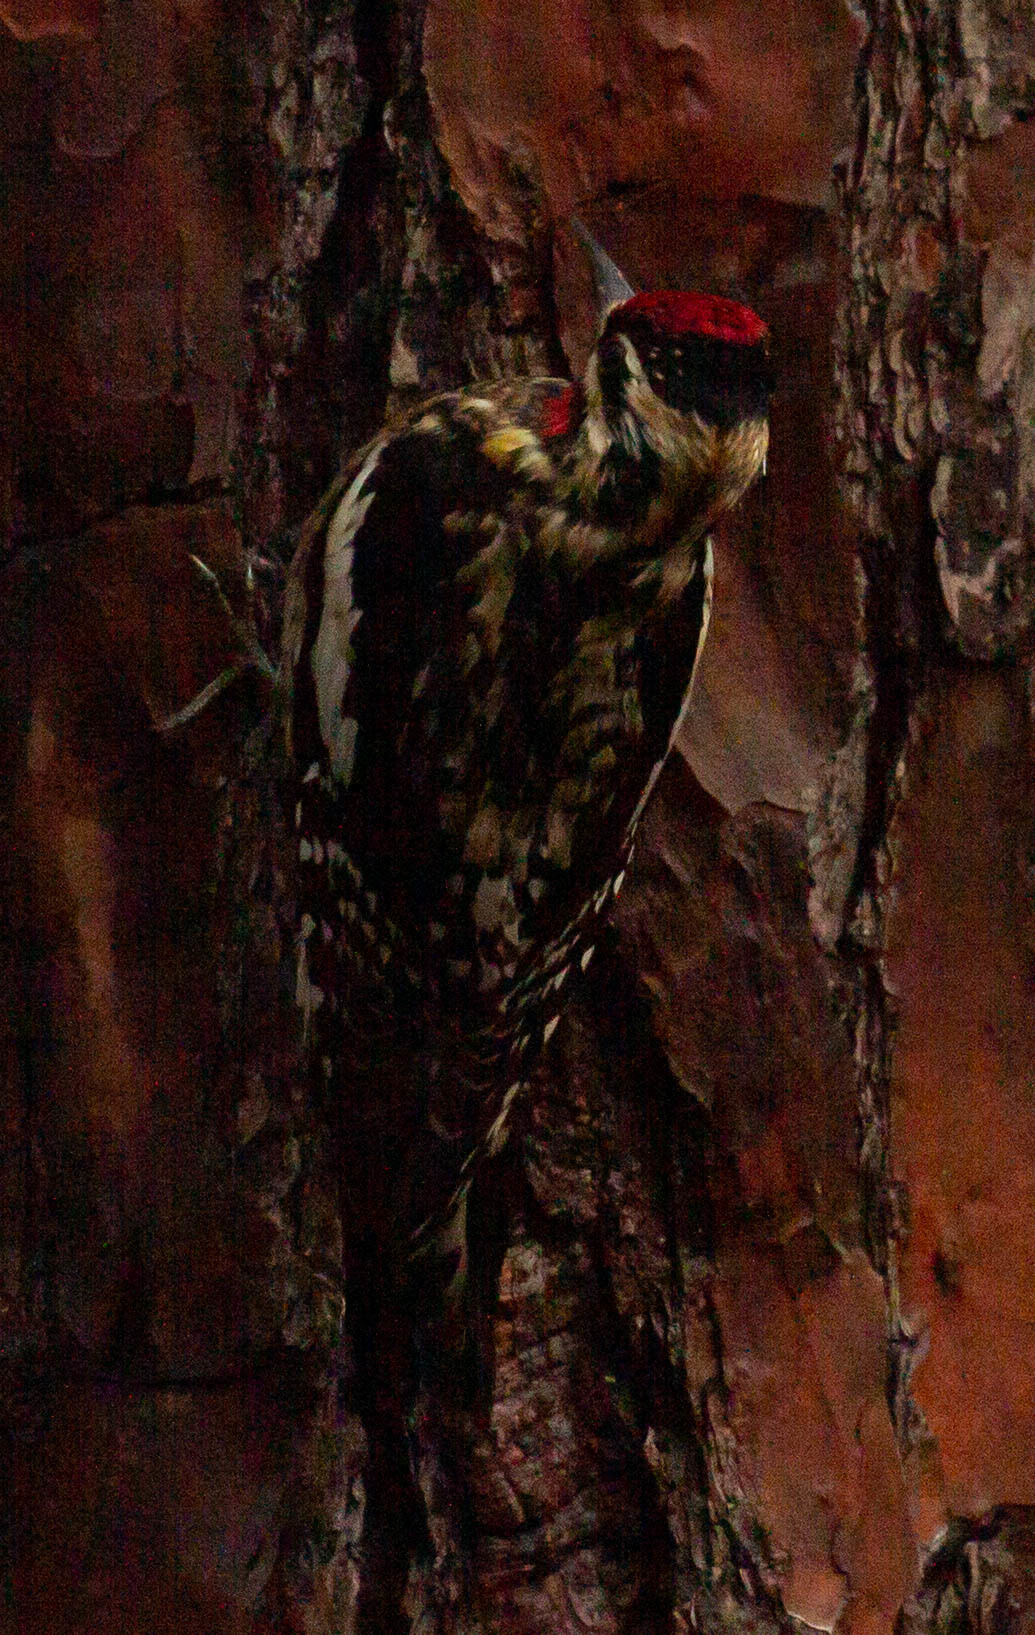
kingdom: Animalia
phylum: Chordata
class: Aves
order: Piciformes
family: Picidae
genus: Sphyrapicus
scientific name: Sphyrapicus varius
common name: Yellow-bellied sapsucker
